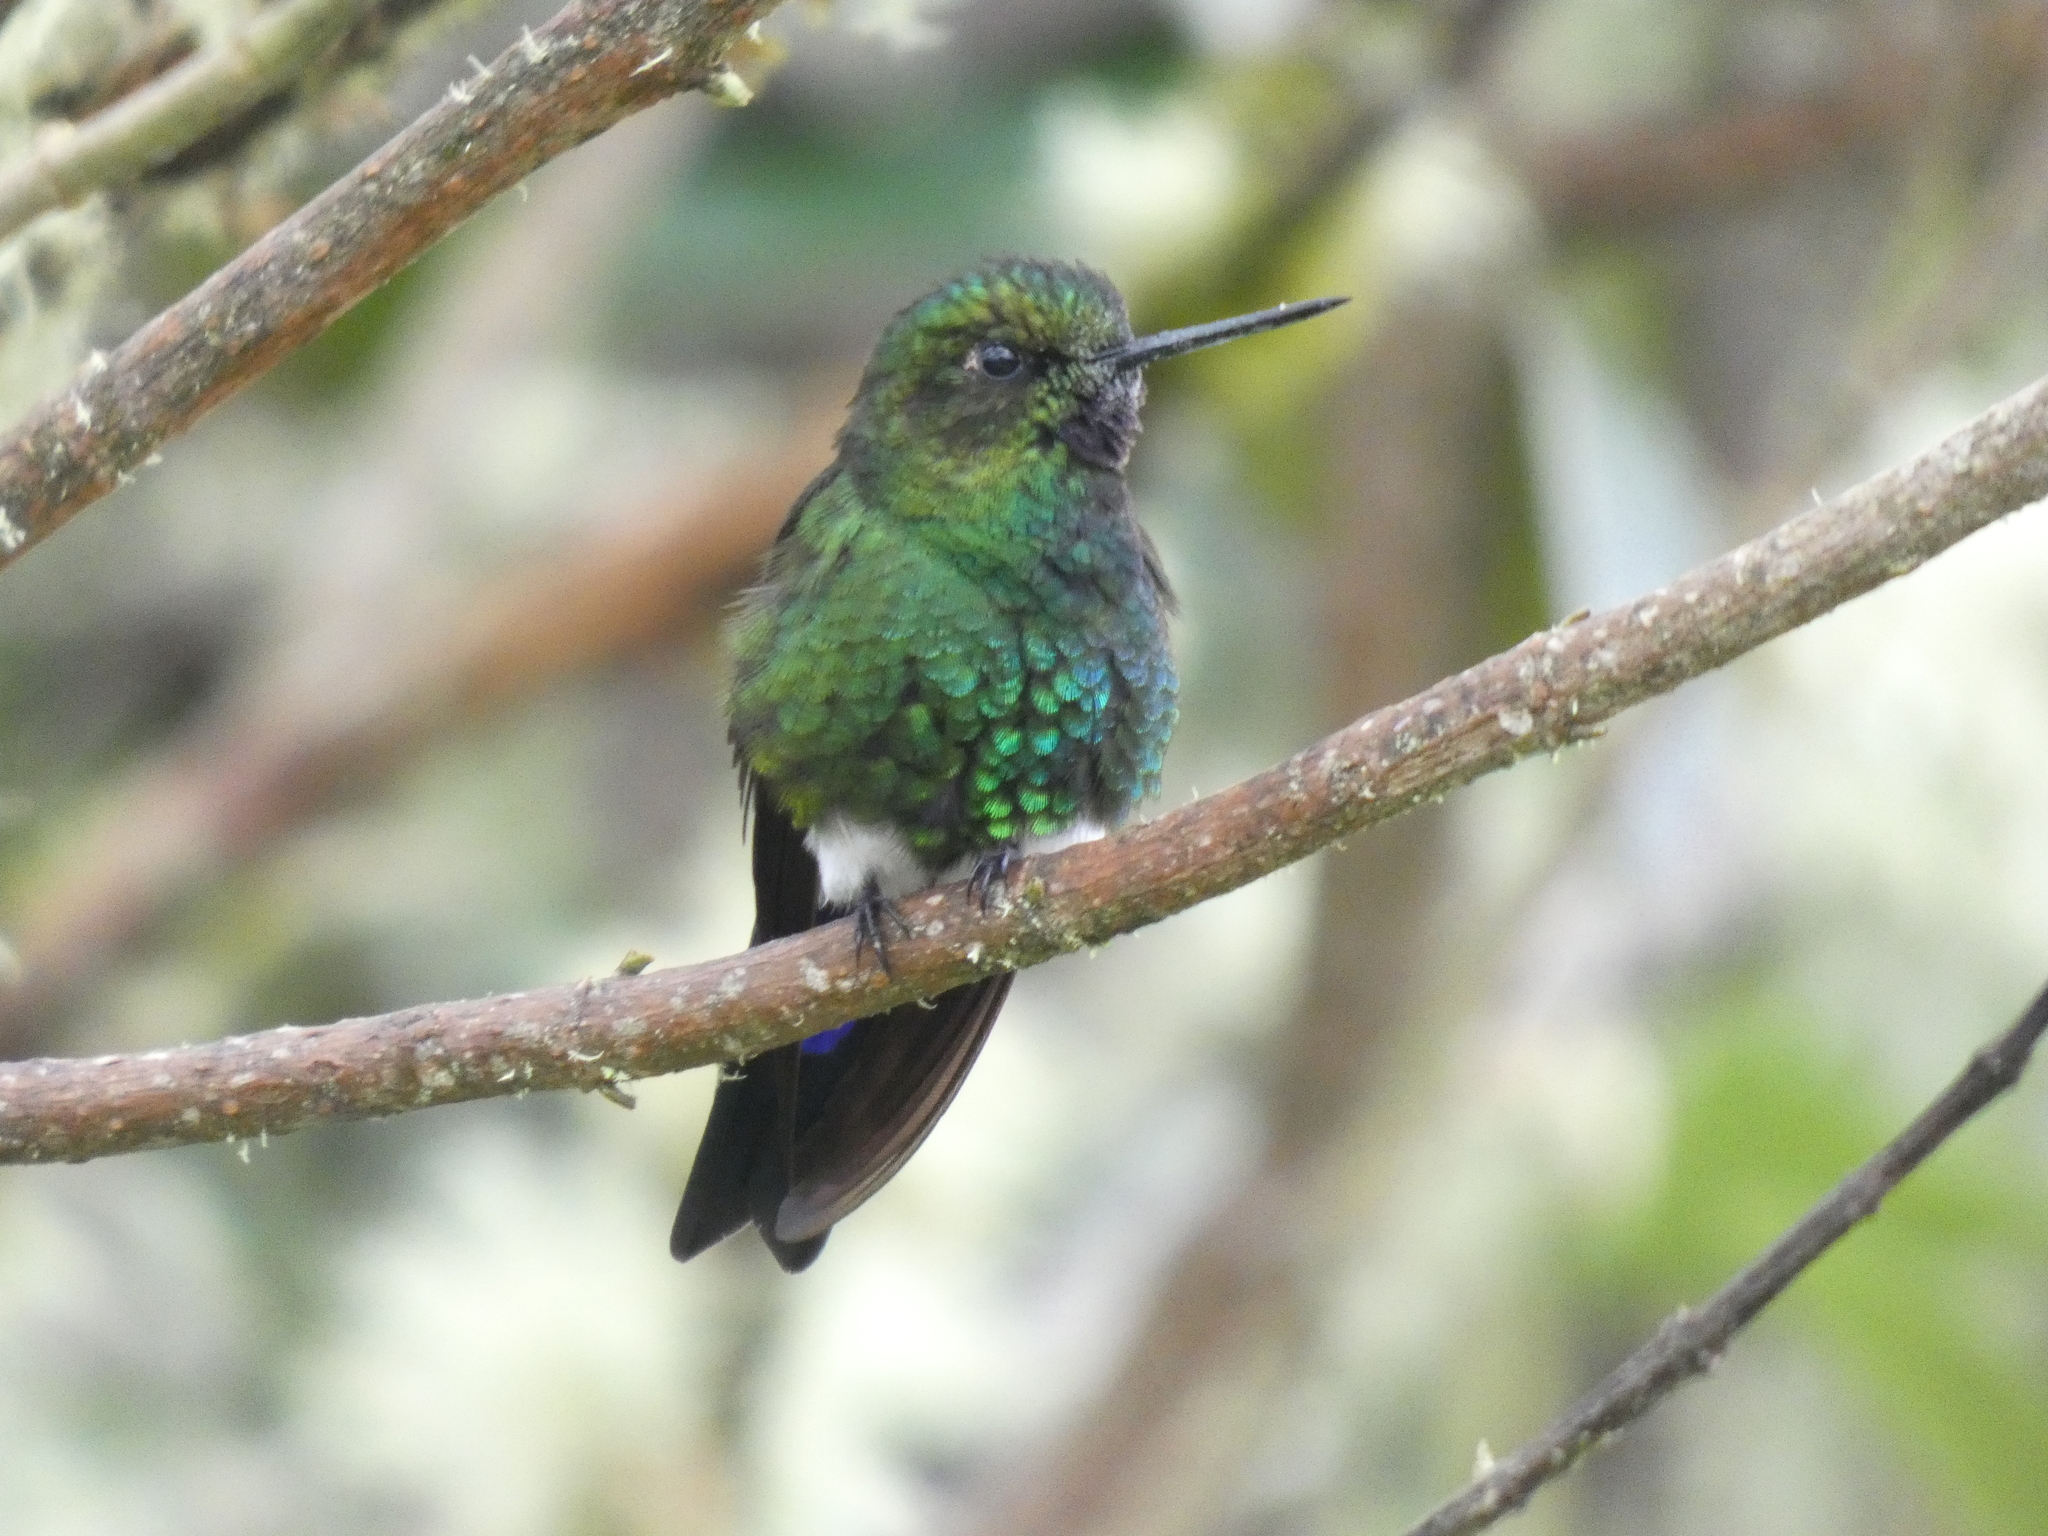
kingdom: Animalia
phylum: Chordata
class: Aves
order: Apodiformes
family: Trochilidae
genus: Eriocnemis
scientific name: Eriocnemis vestita
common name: Glowing puffleg
